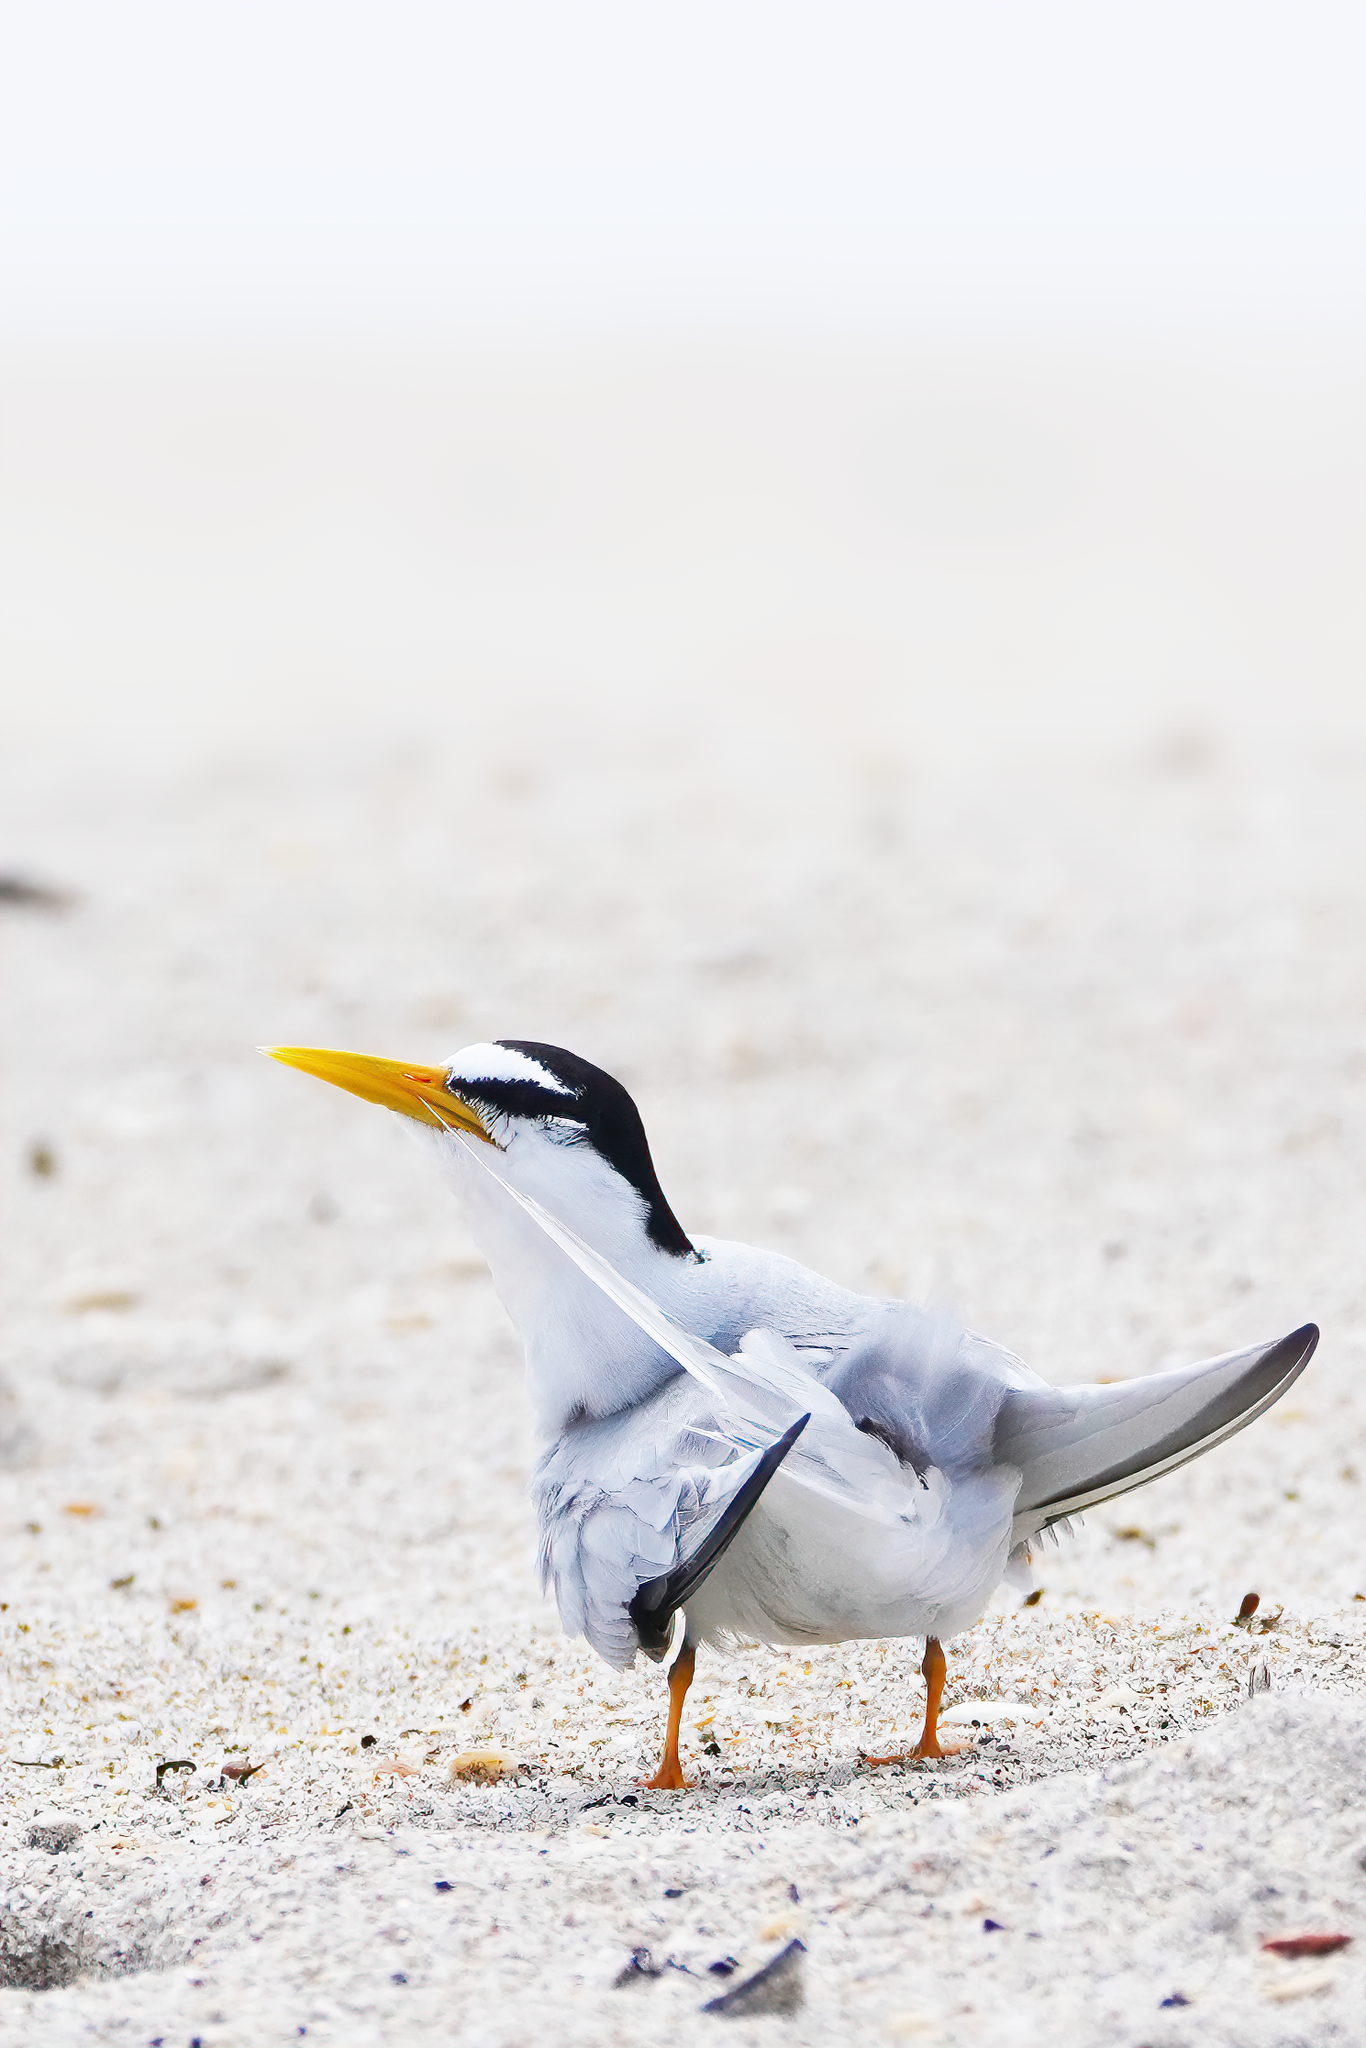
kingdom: Animalia
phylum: Chordata
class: Aves
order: Charadriiformes
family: Laridae
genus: Sternula
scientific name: Sternula antillarum
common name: Least tern
